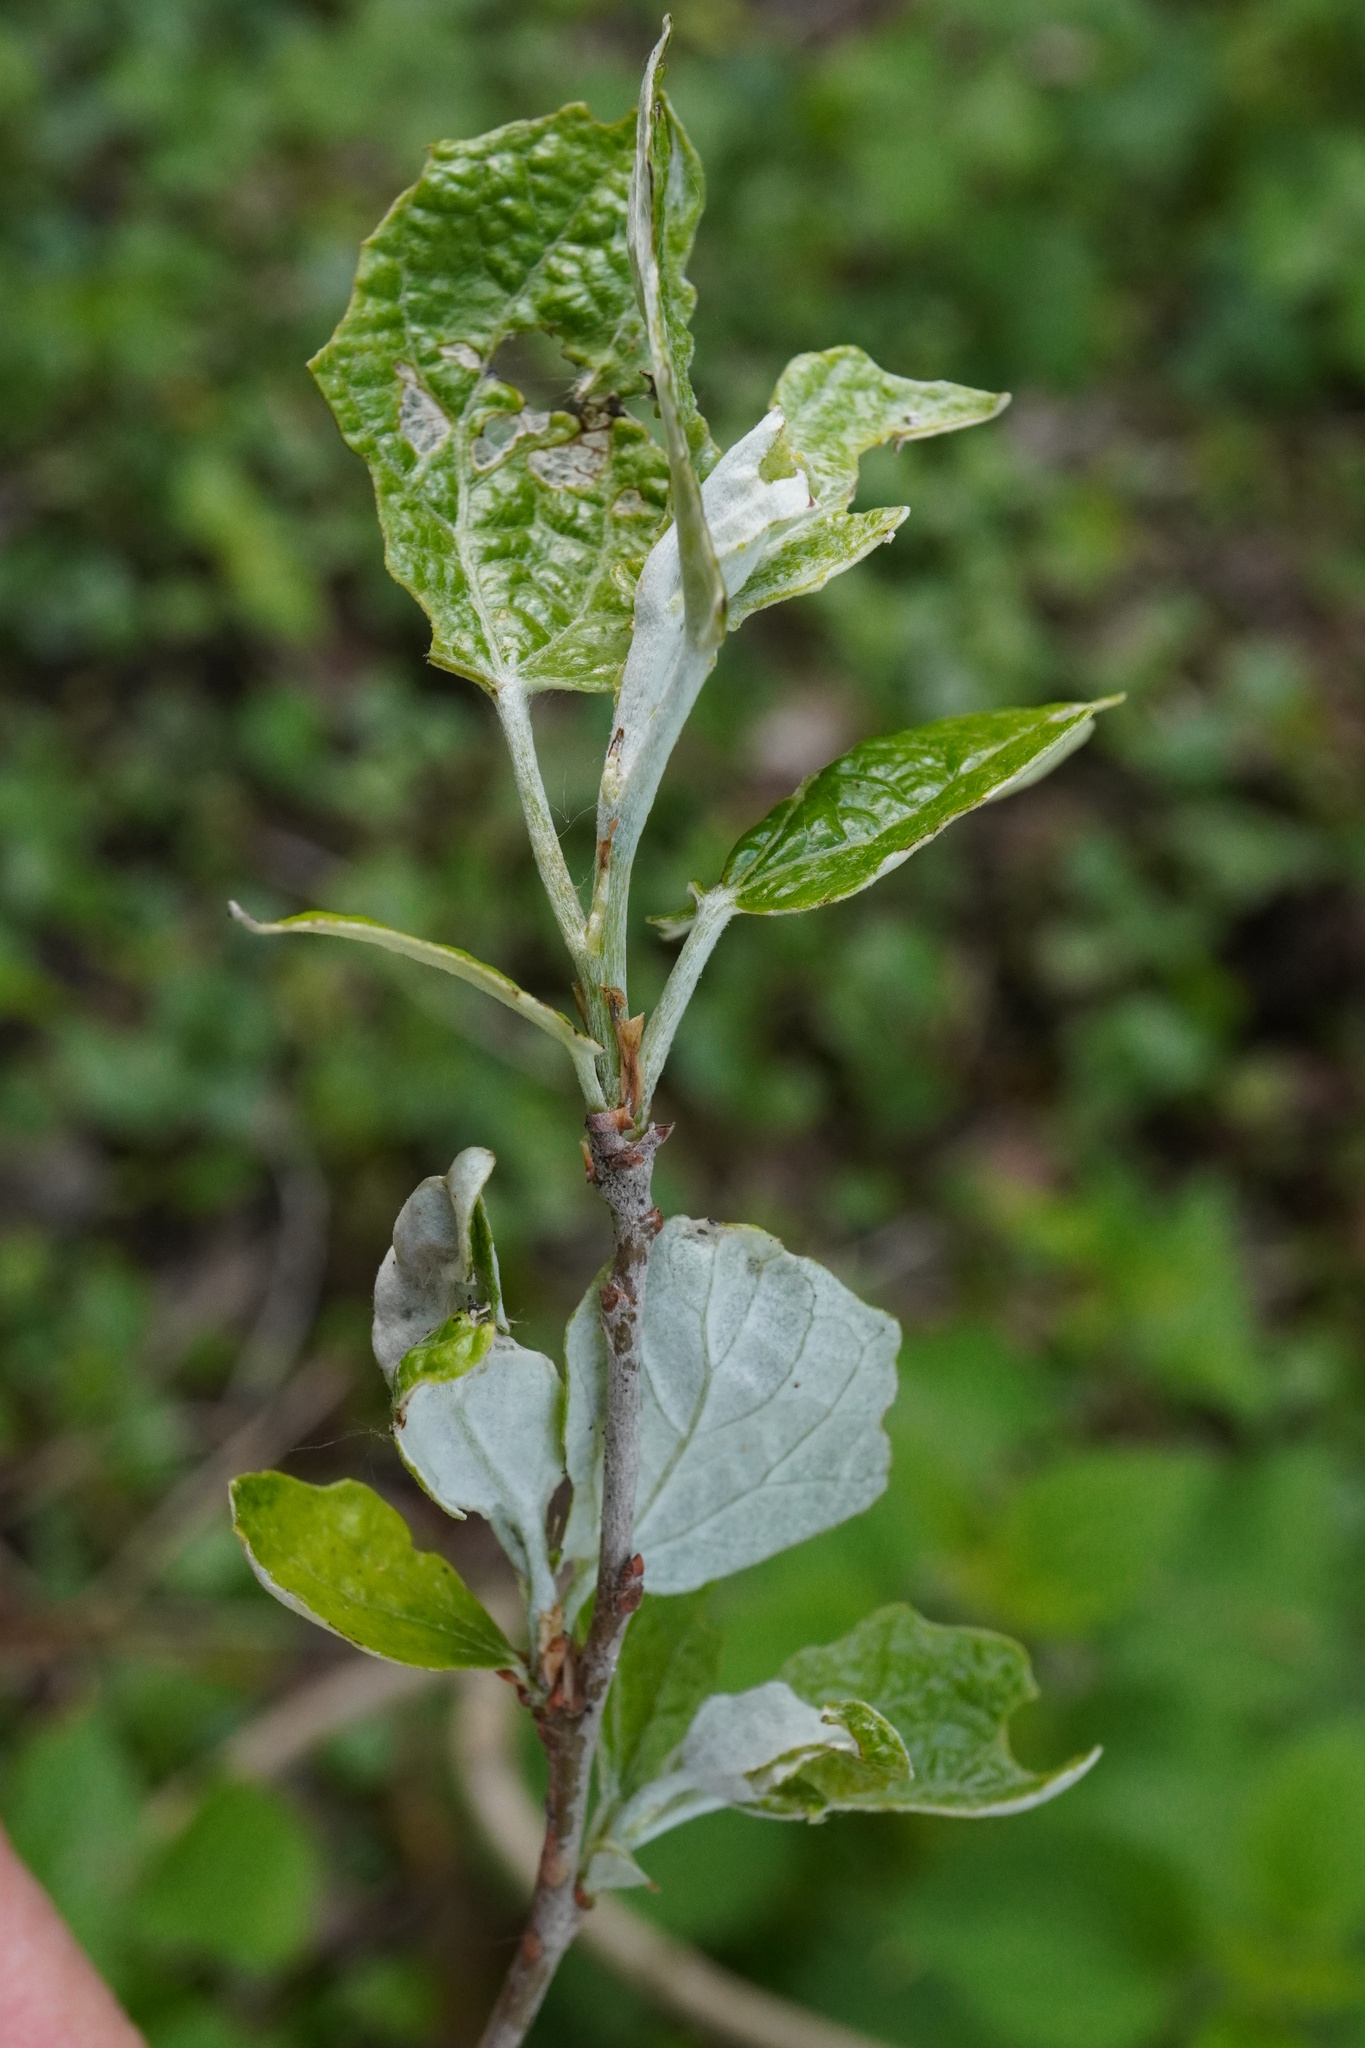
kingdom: Plantae
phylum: Tracheophyta
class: Magnoliopsida
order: Malpighiales
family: Salicaceae
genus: Populus
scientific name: Populus alba
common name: White poplar
